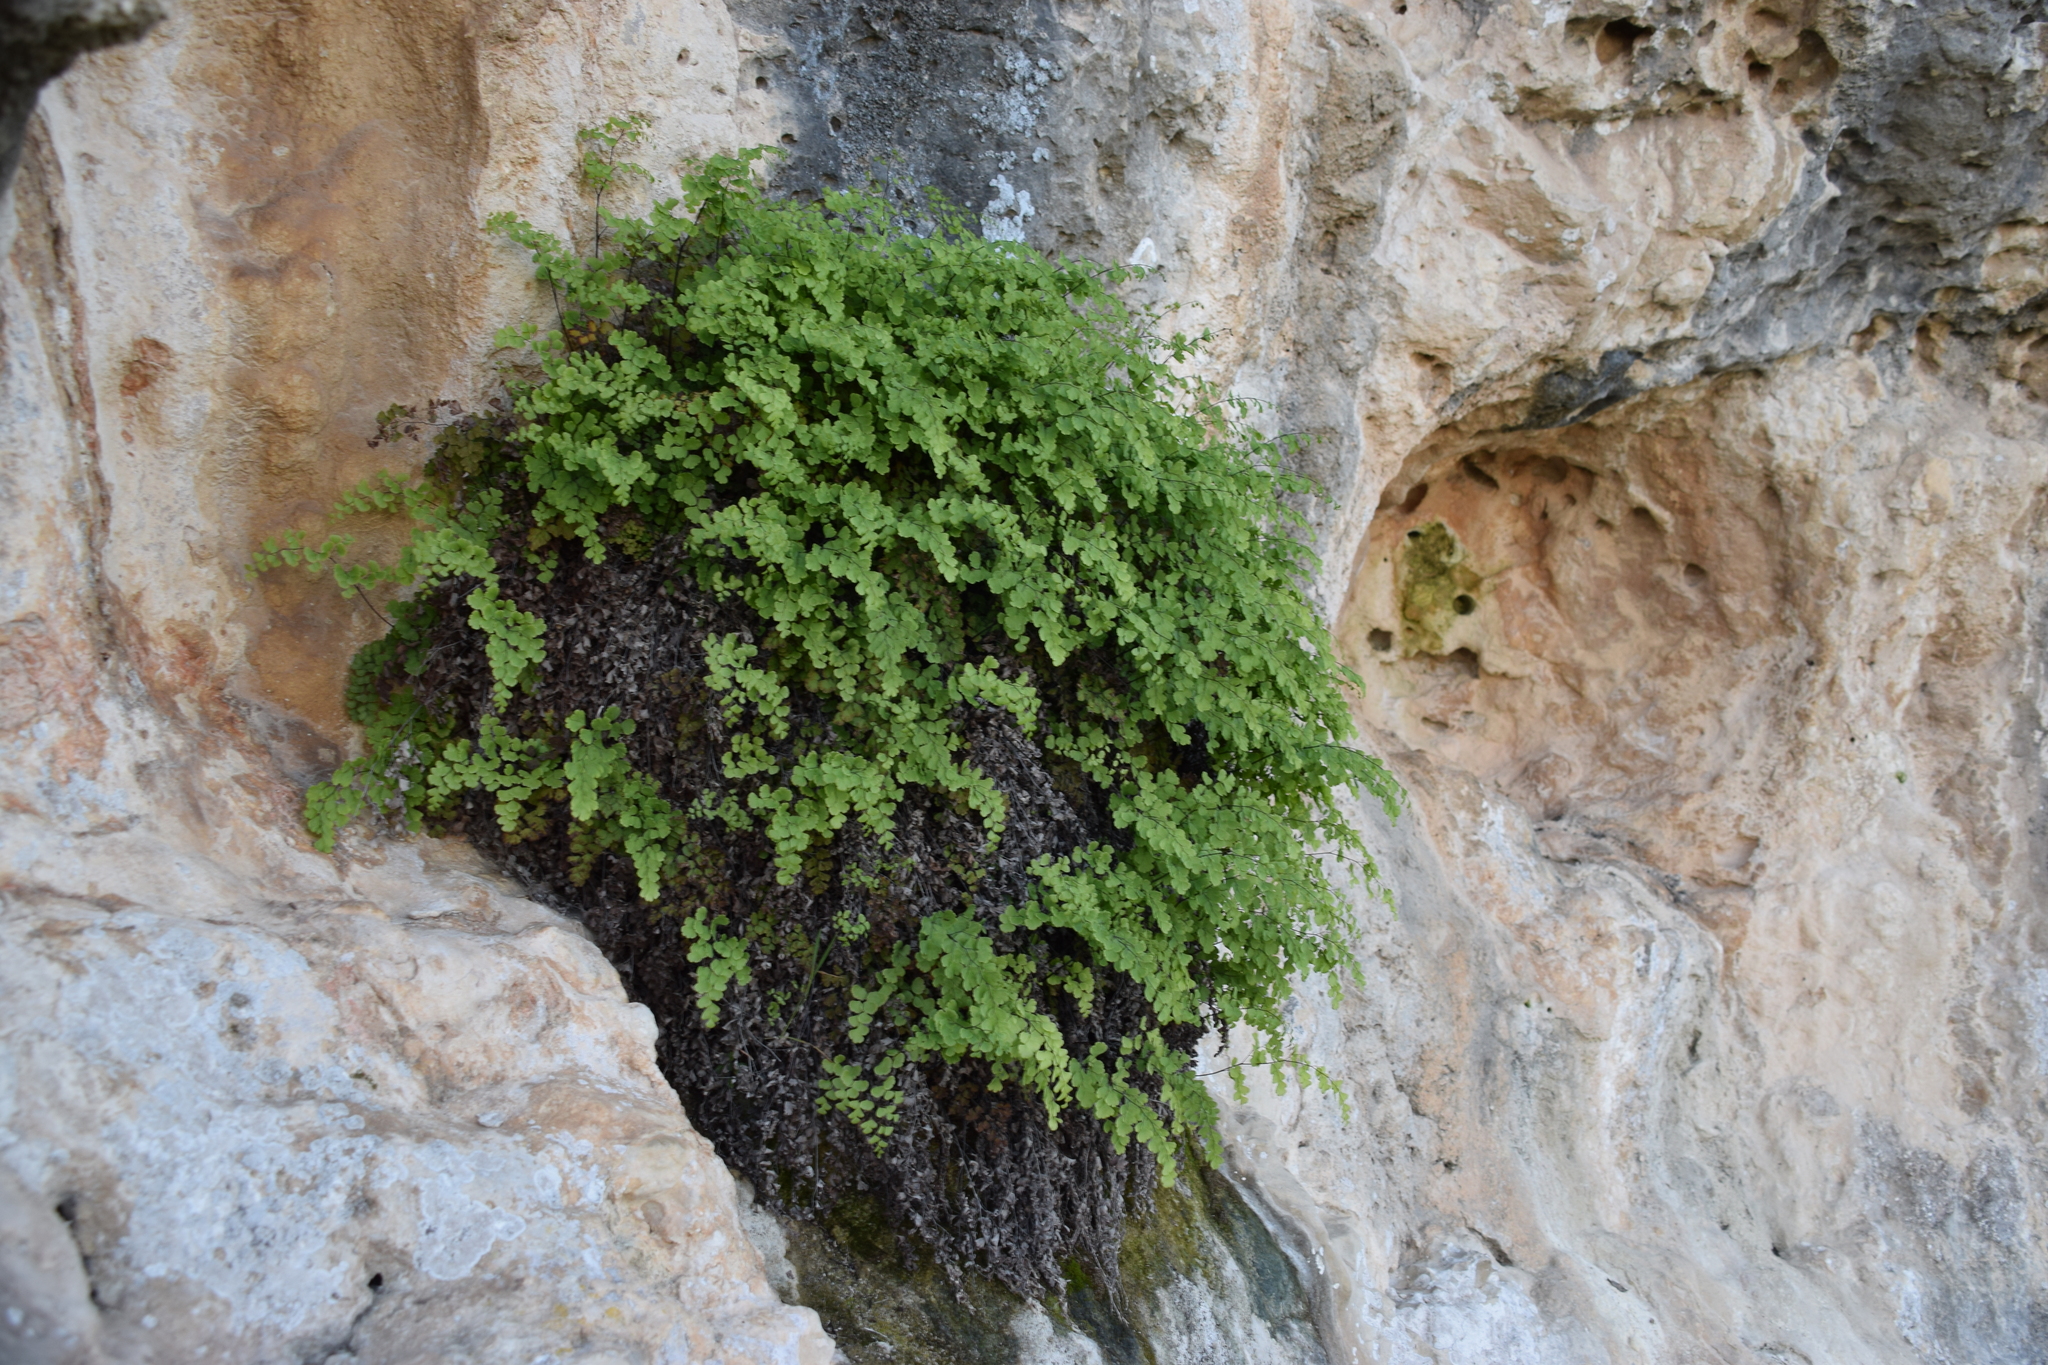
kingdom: Plantae
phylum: Tracheophyta
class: Polypodiopsida
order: Polypodiales
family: Pteridaceae
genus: Adiantum
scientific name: Adiantum capillus-veneris
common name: Maidenhair fern
